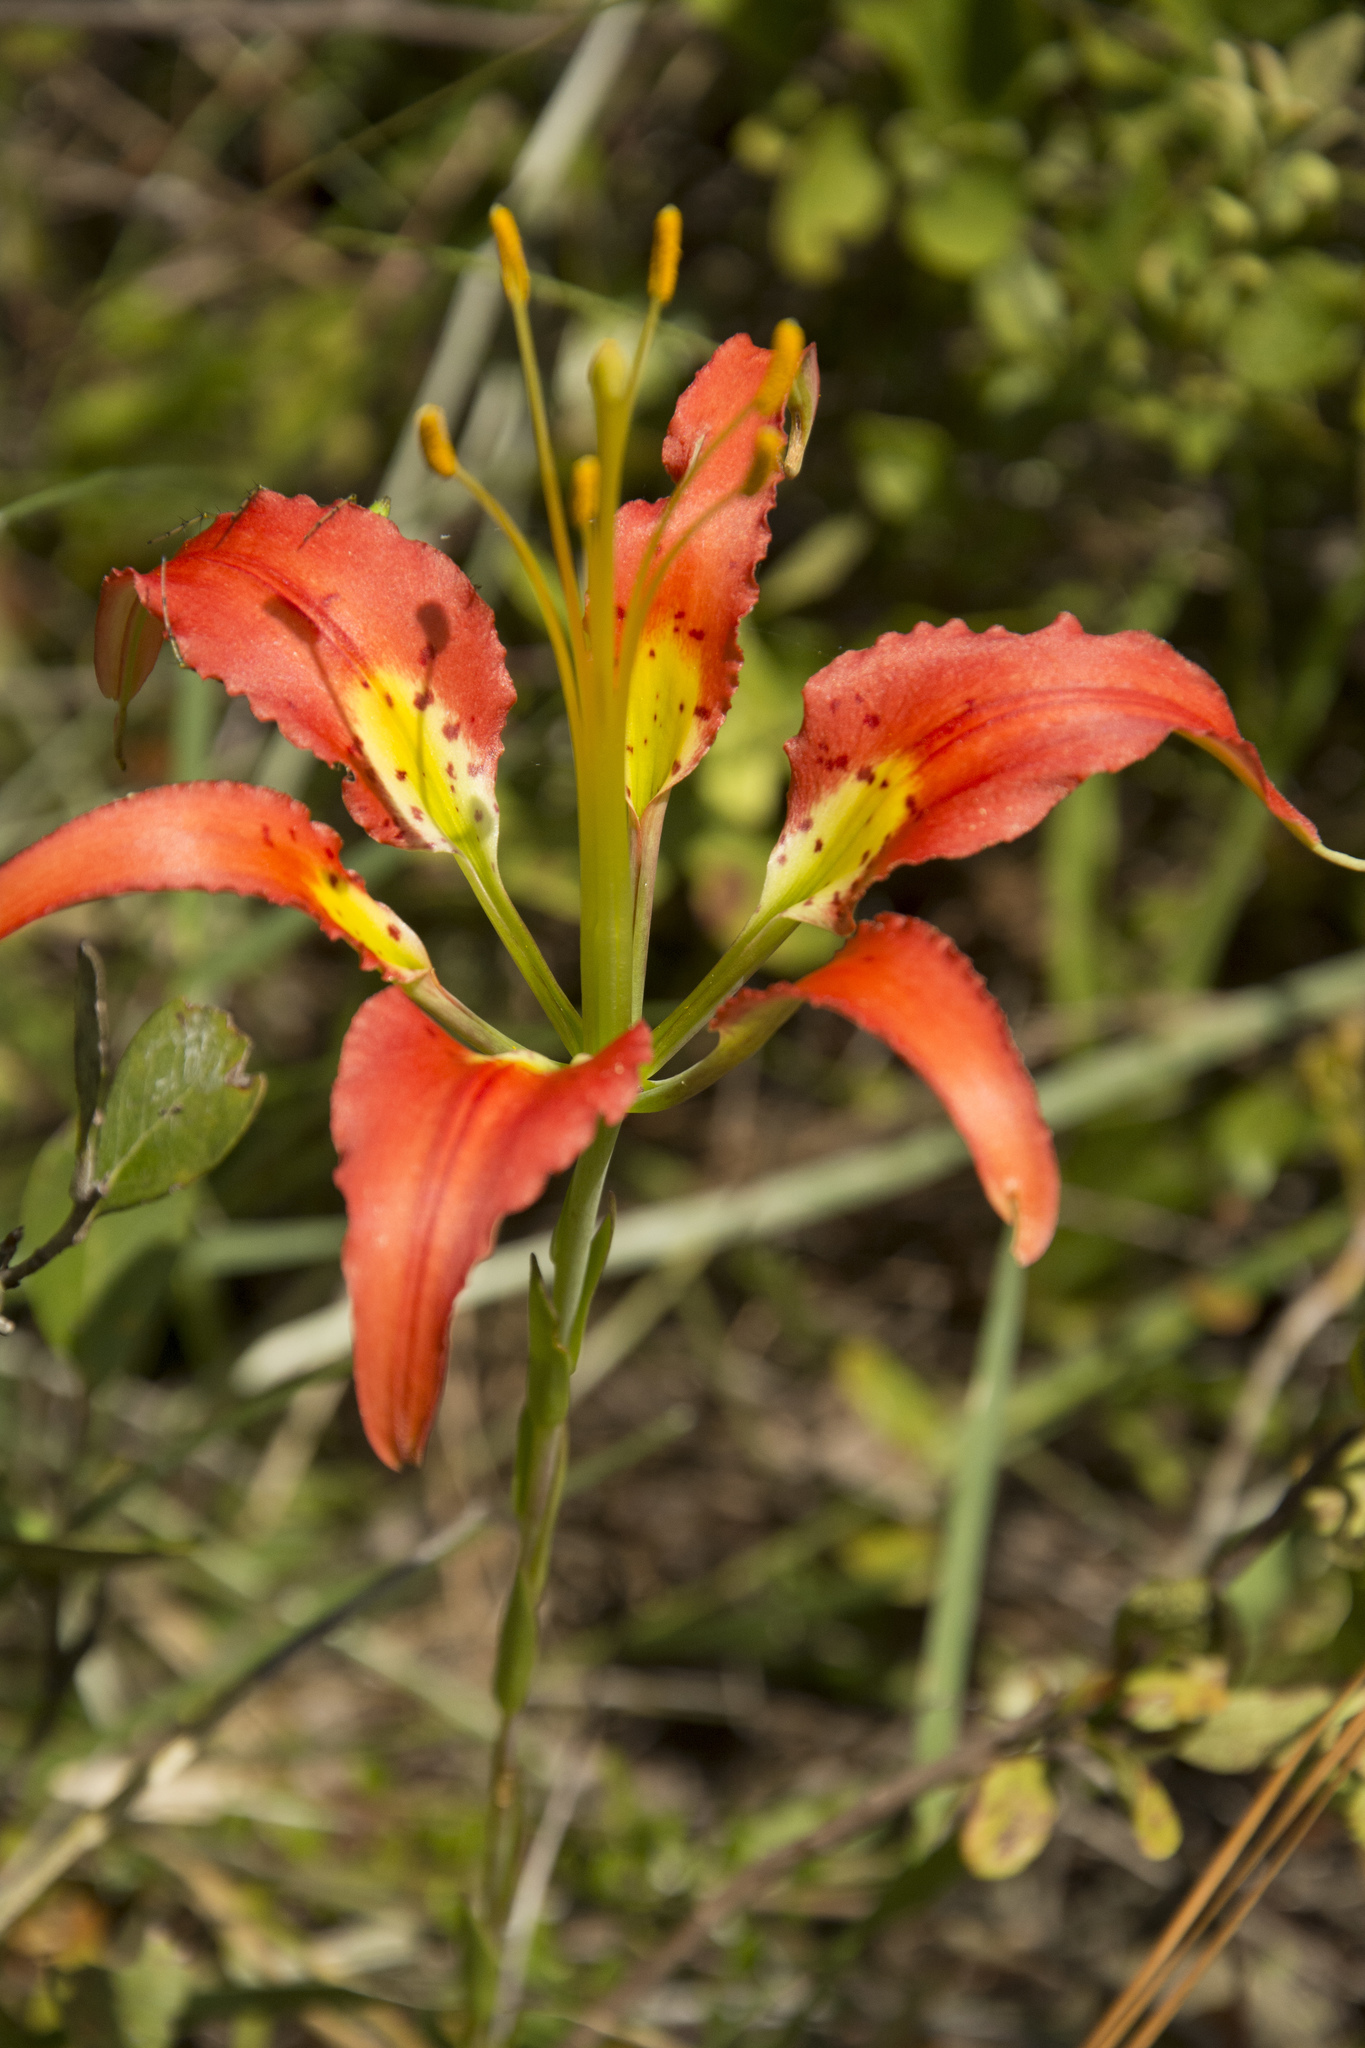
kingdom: Plantae
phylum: Tracheophyta
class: Liliopsida
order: Liliales
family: Liliaceae
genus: Lilium
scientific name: Lilium catesbaei
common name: Catesby's lily
